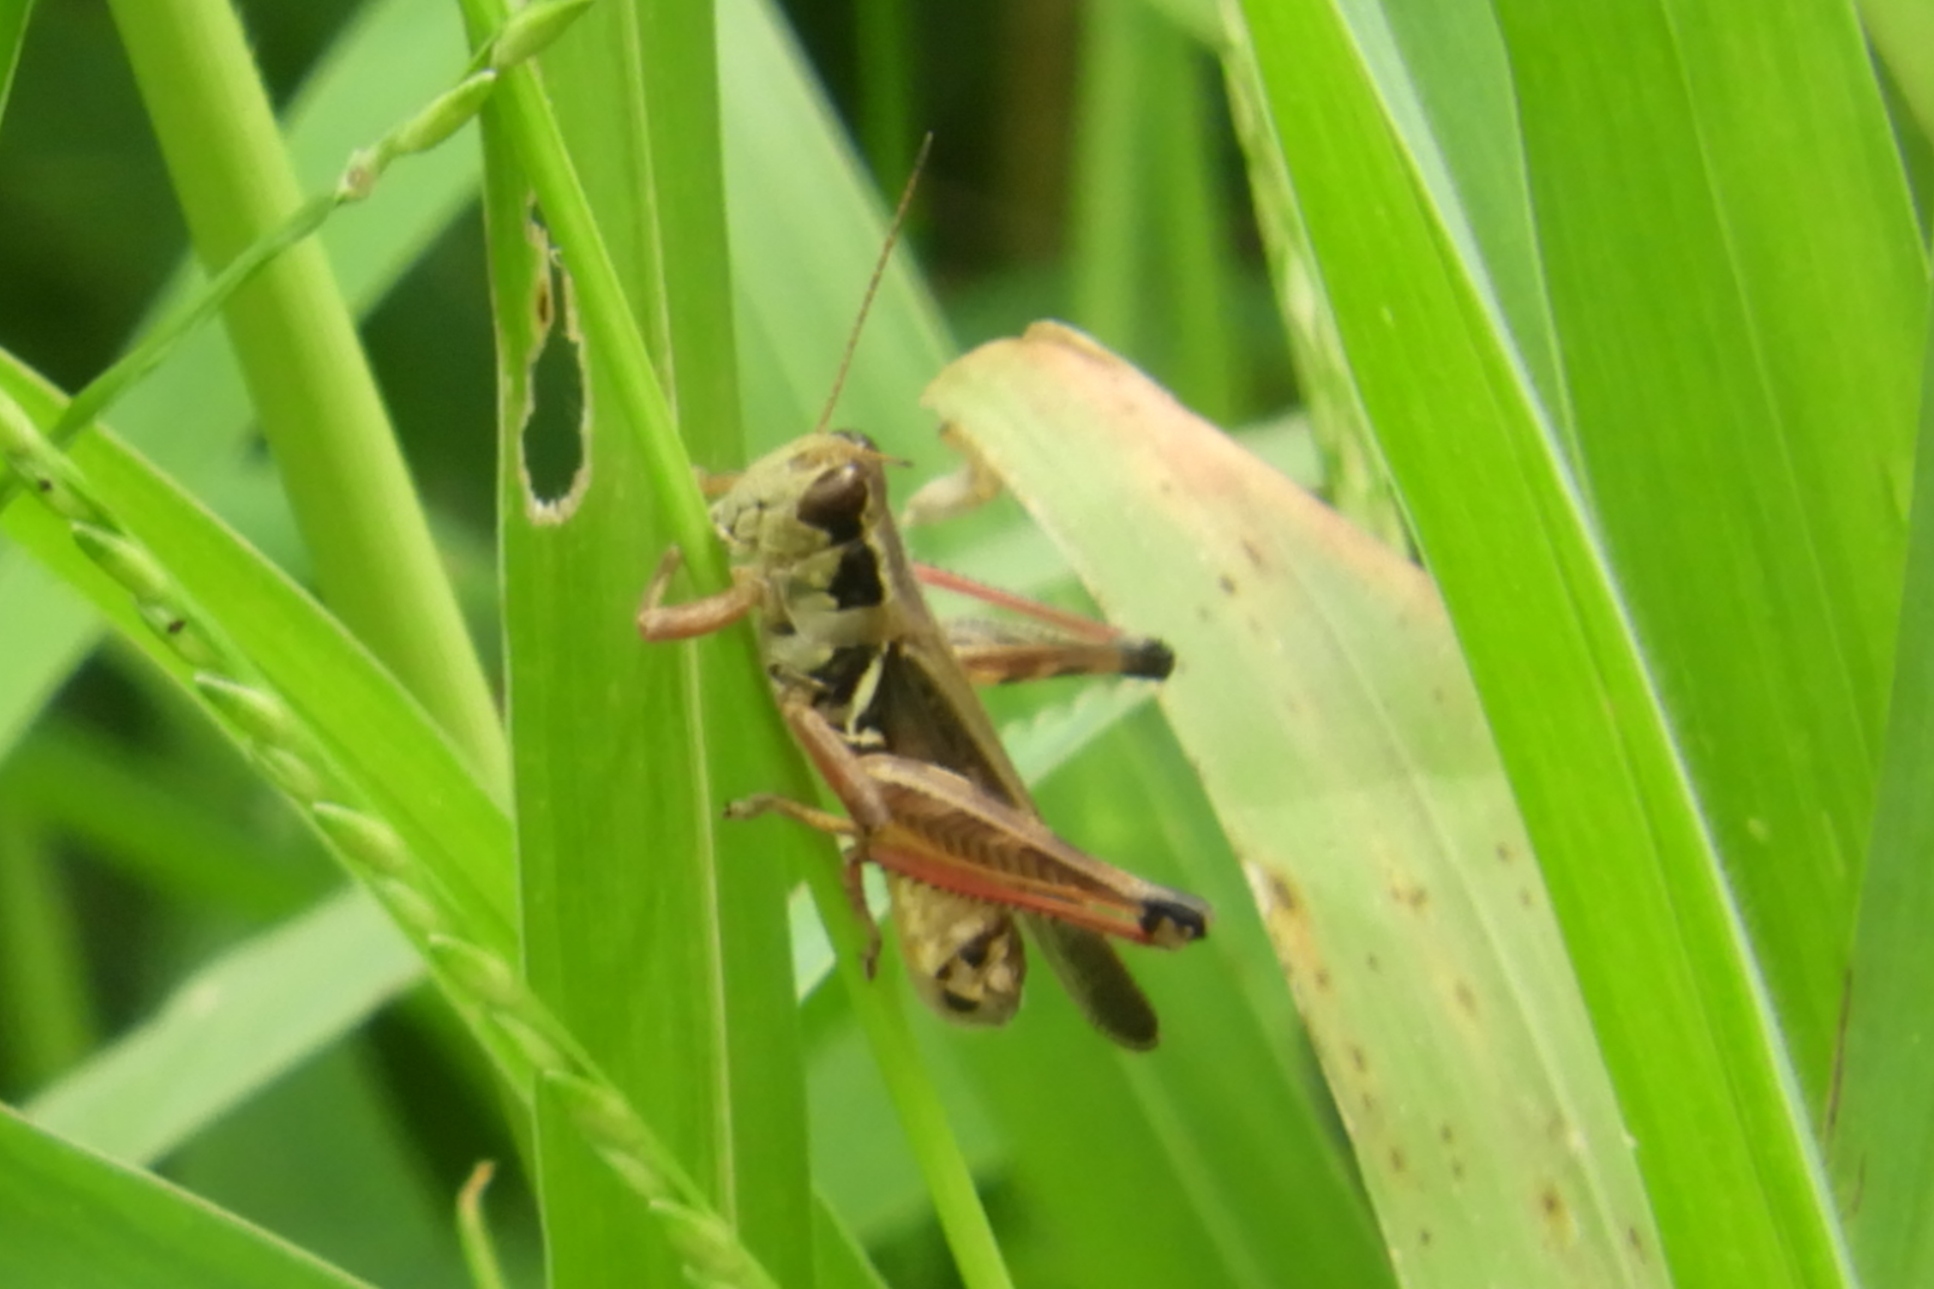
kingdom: Animalia
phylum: Arthropoda
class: Insecta
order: Orthoptera
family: Acrididae
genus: Melanoplus
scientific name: Melanoplus femurrubrum
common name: Red-legged grasshopper
